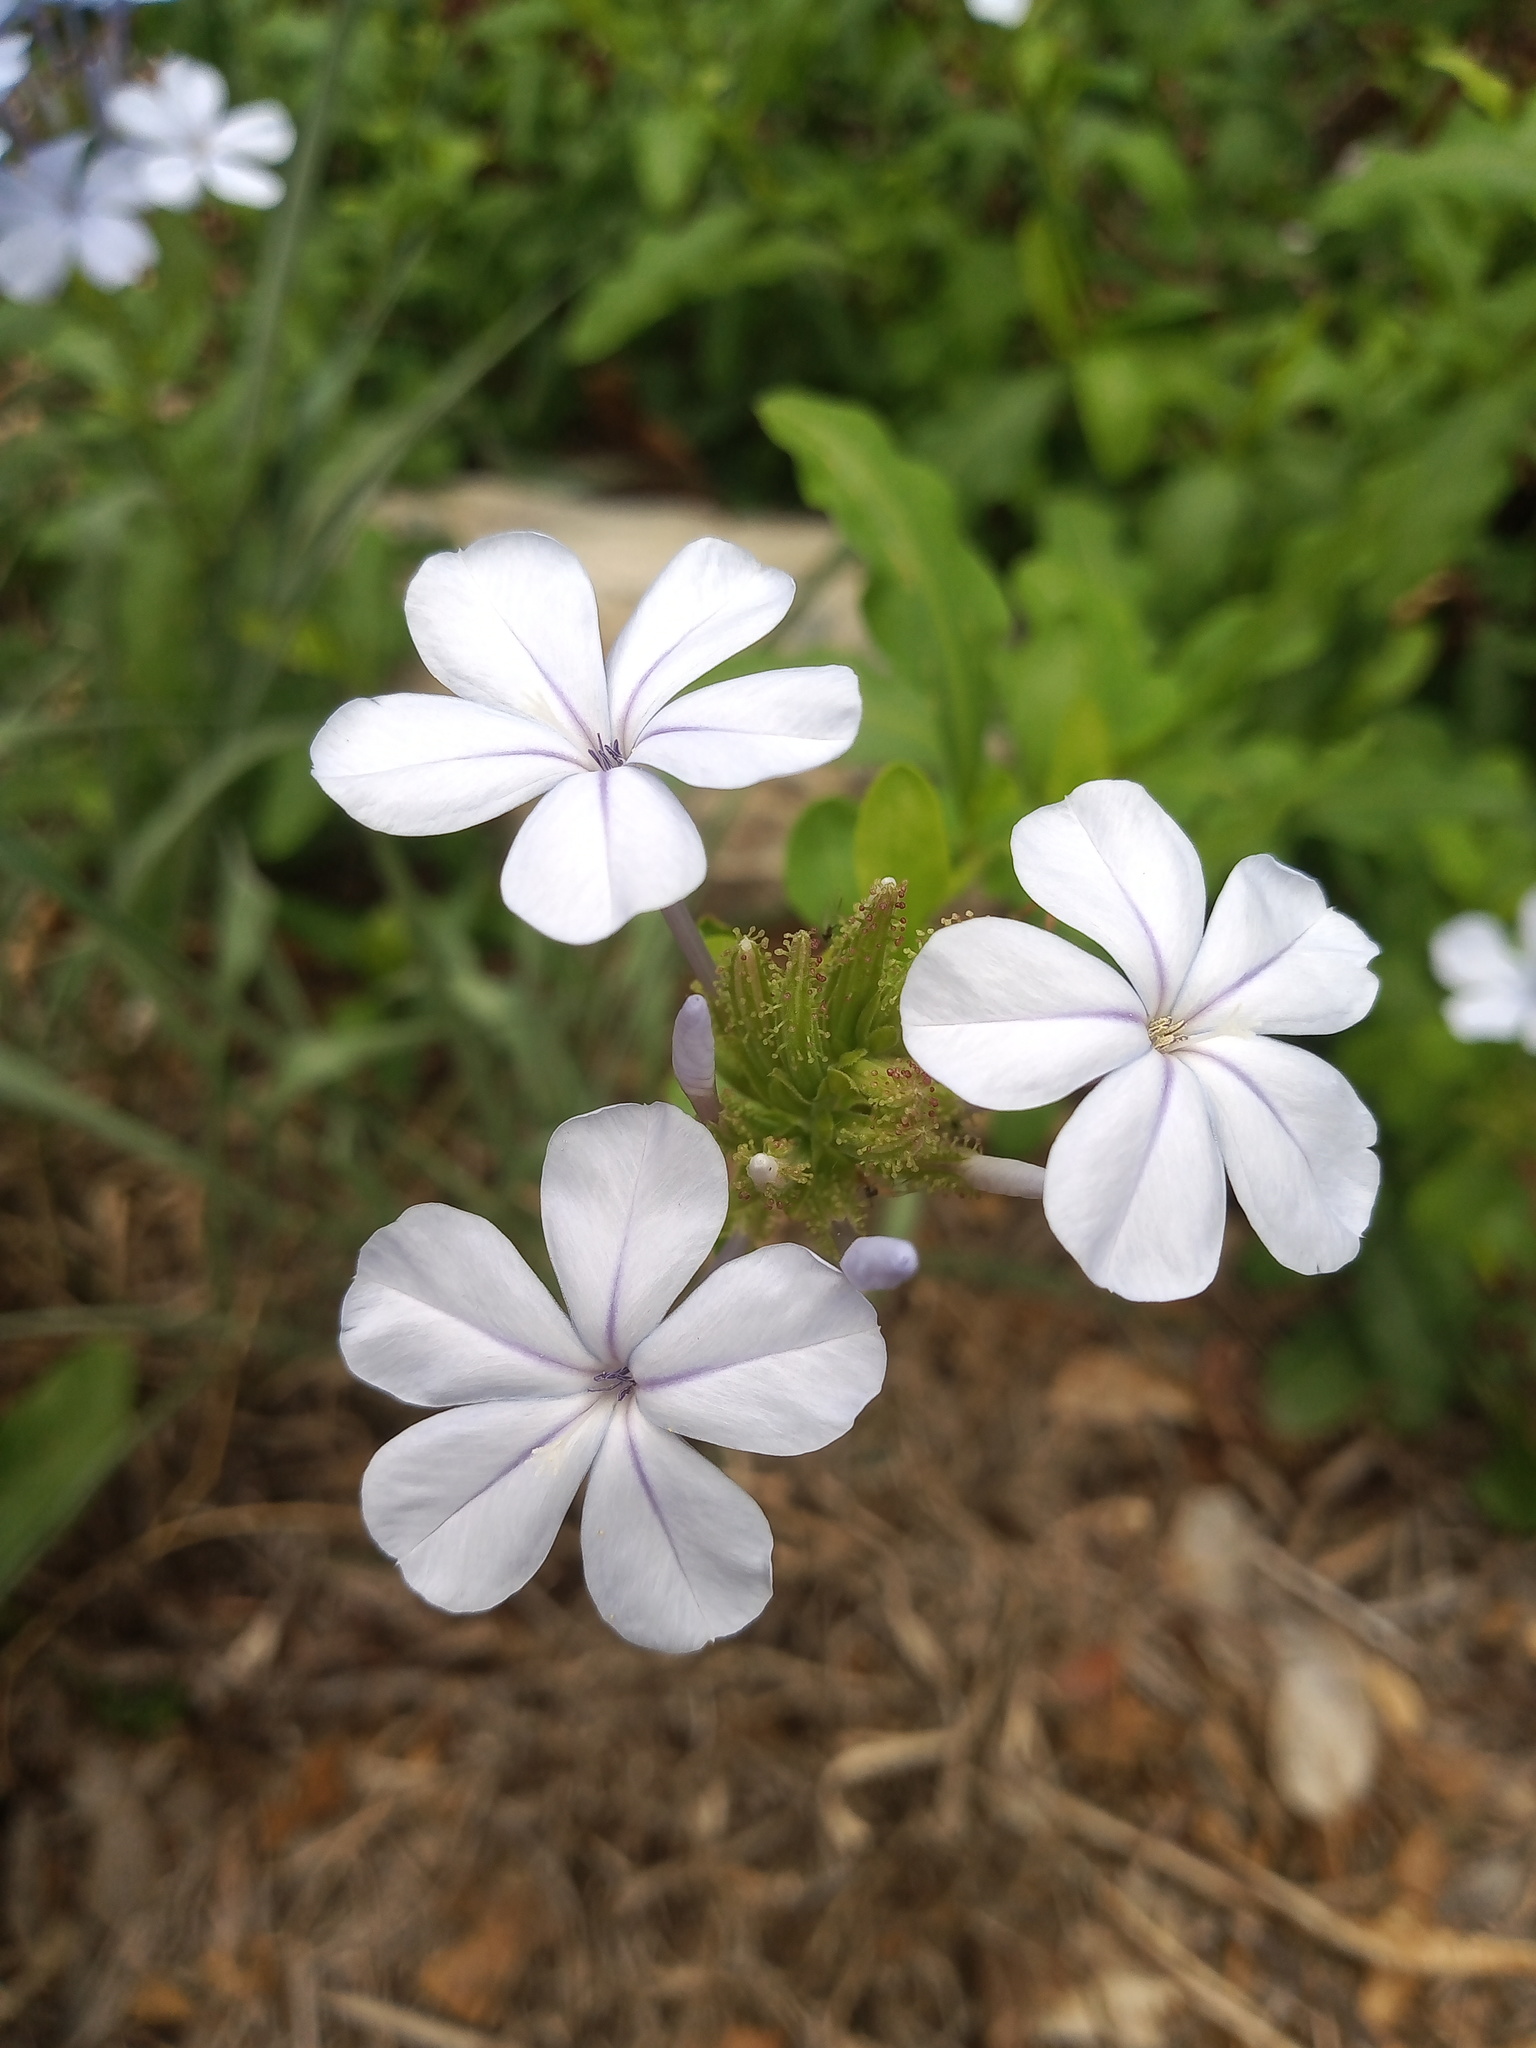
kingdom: Plantae
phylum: Tracheophyta
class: Magnoliopsida
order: Caryophyllales
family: Plumbaginaceae
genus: Plumbago
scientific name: Plumbago auriculata
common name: Cape leadwort
